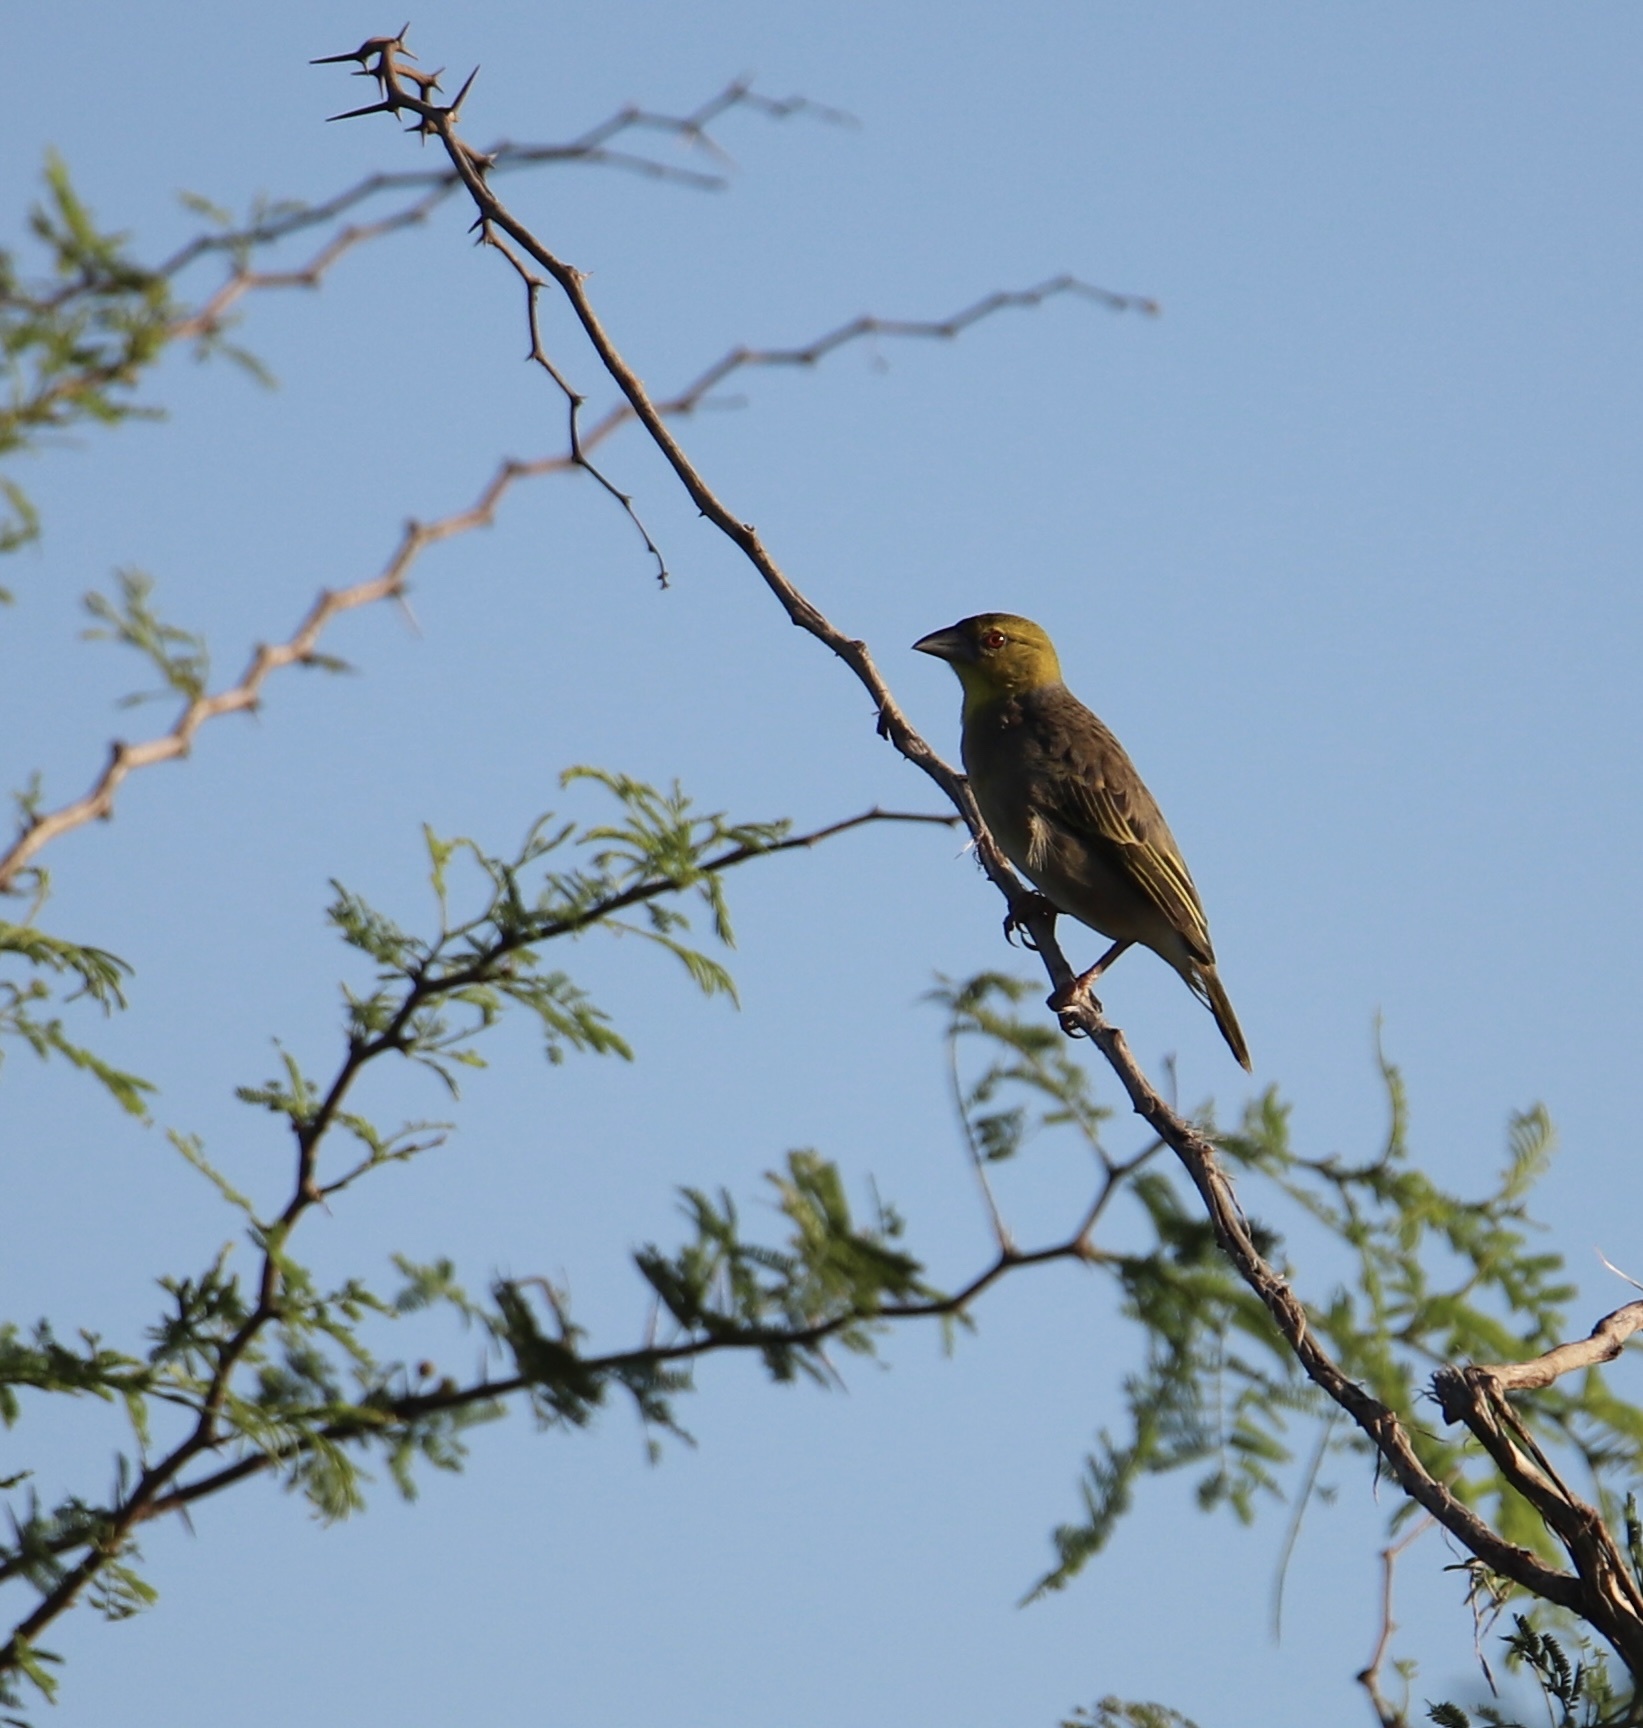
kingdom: Animalia
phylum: Chordata
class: Aves
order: Passeriformes
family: Ploceidae
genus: Ploceus
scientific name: Ploceus cucullatus
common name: Village weaver
